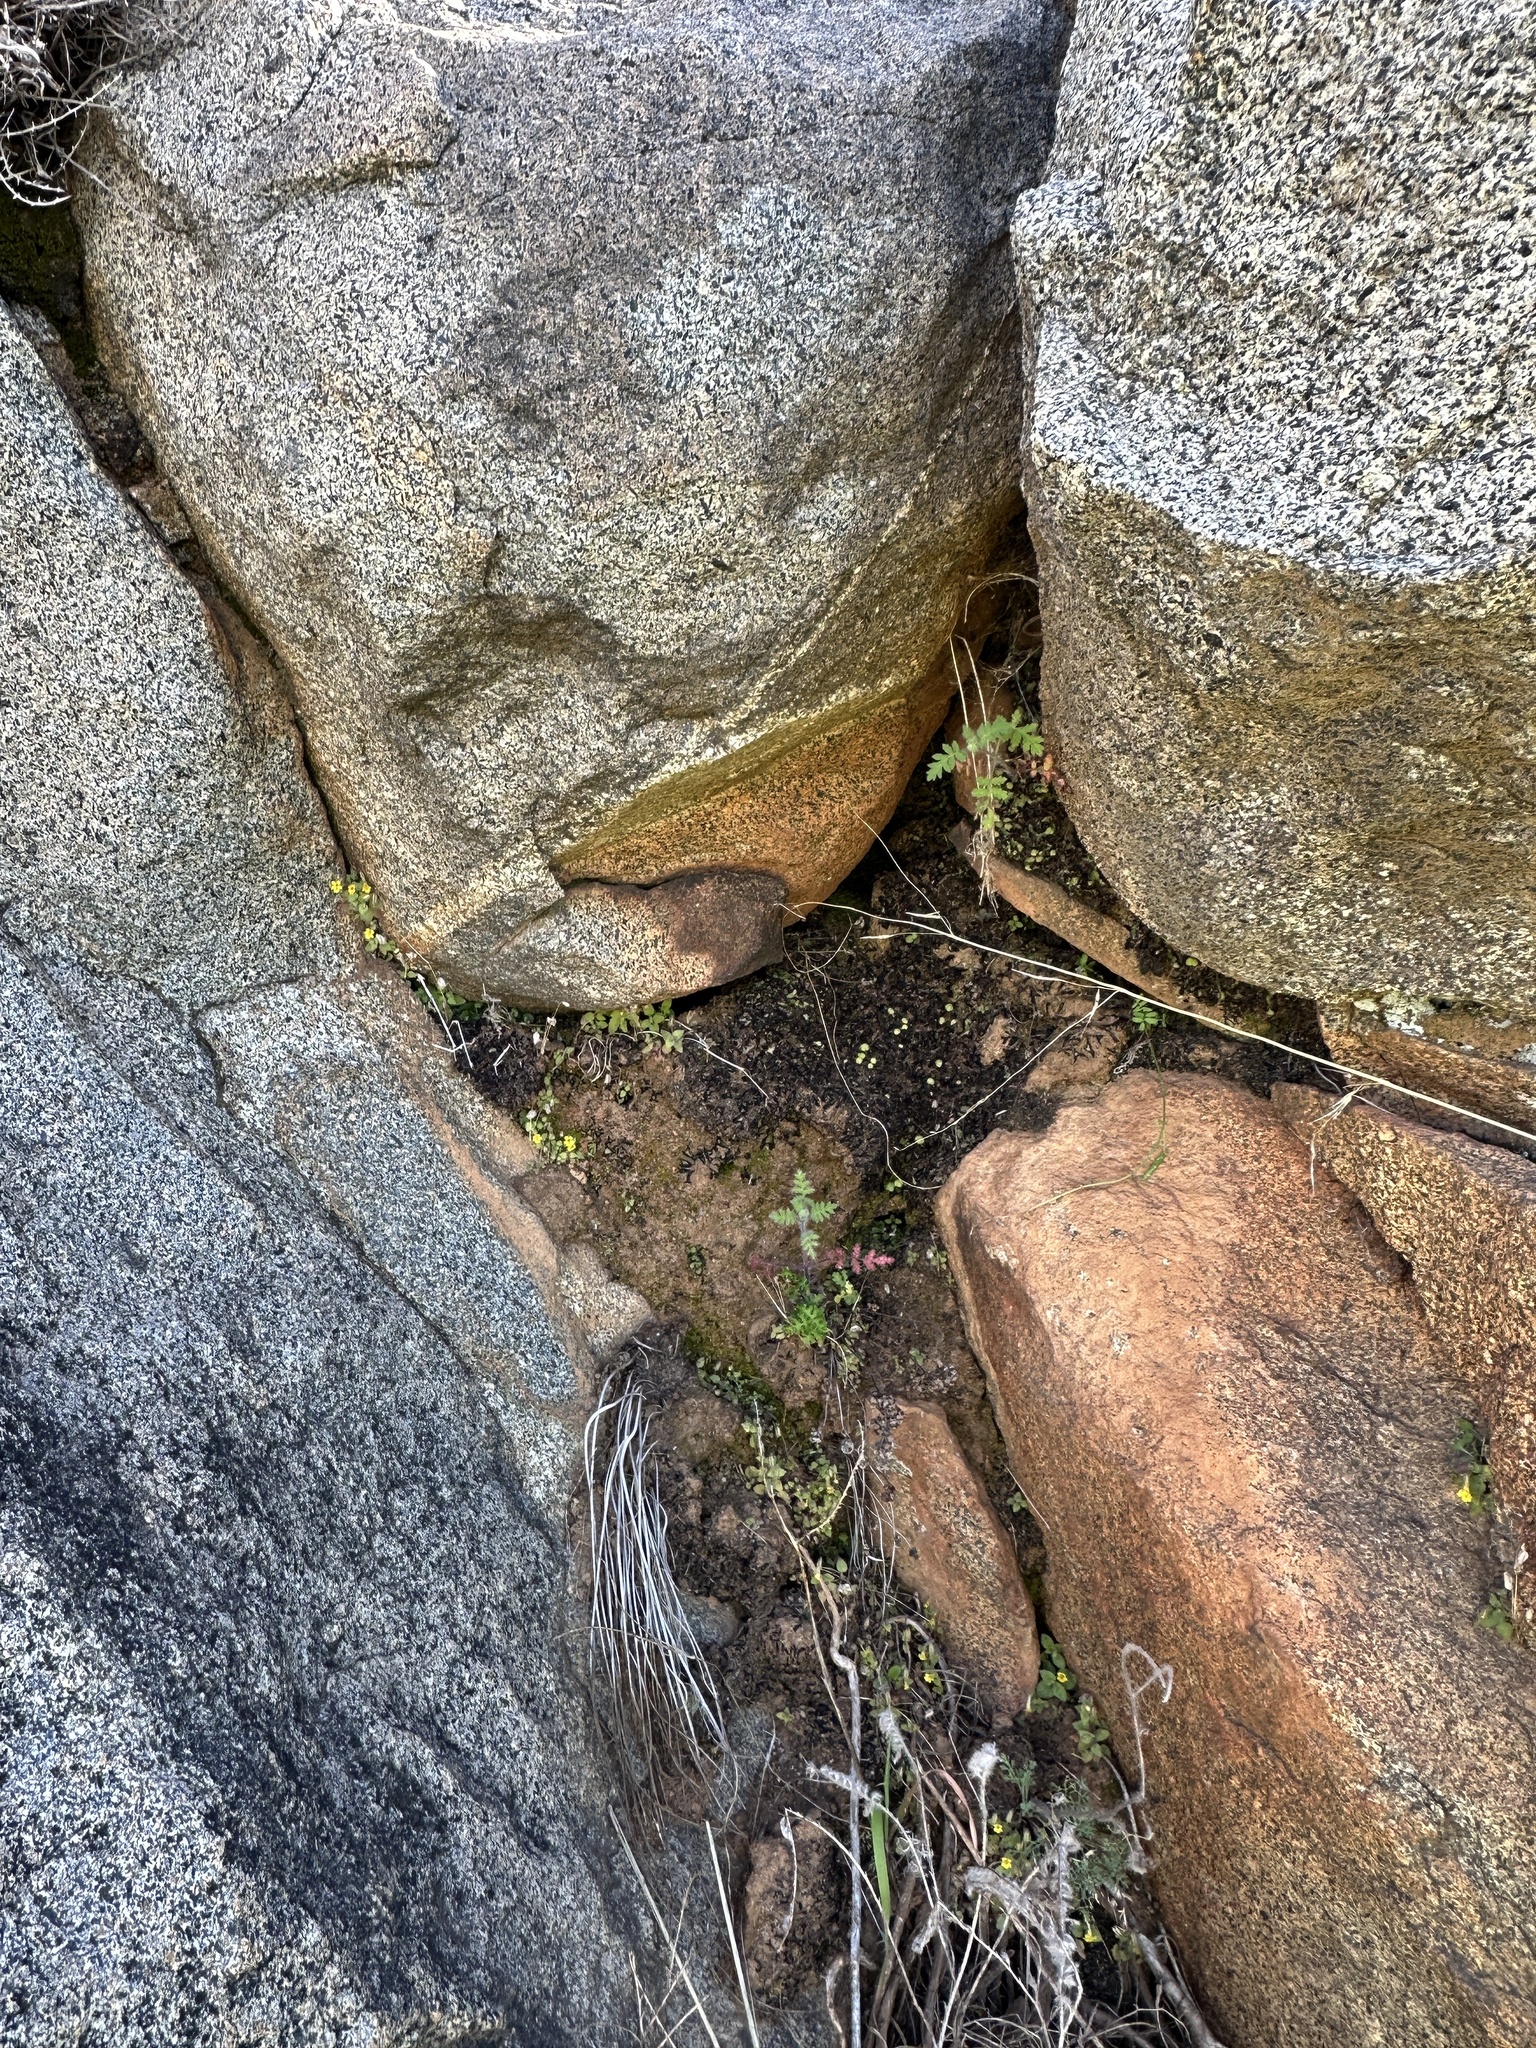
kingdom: Plantae
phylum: Tracheophyta
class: Magnoliopsida
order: Lamiales
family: Phrymaceae
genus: Erythranthe
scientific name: Erythranthe marmorata
